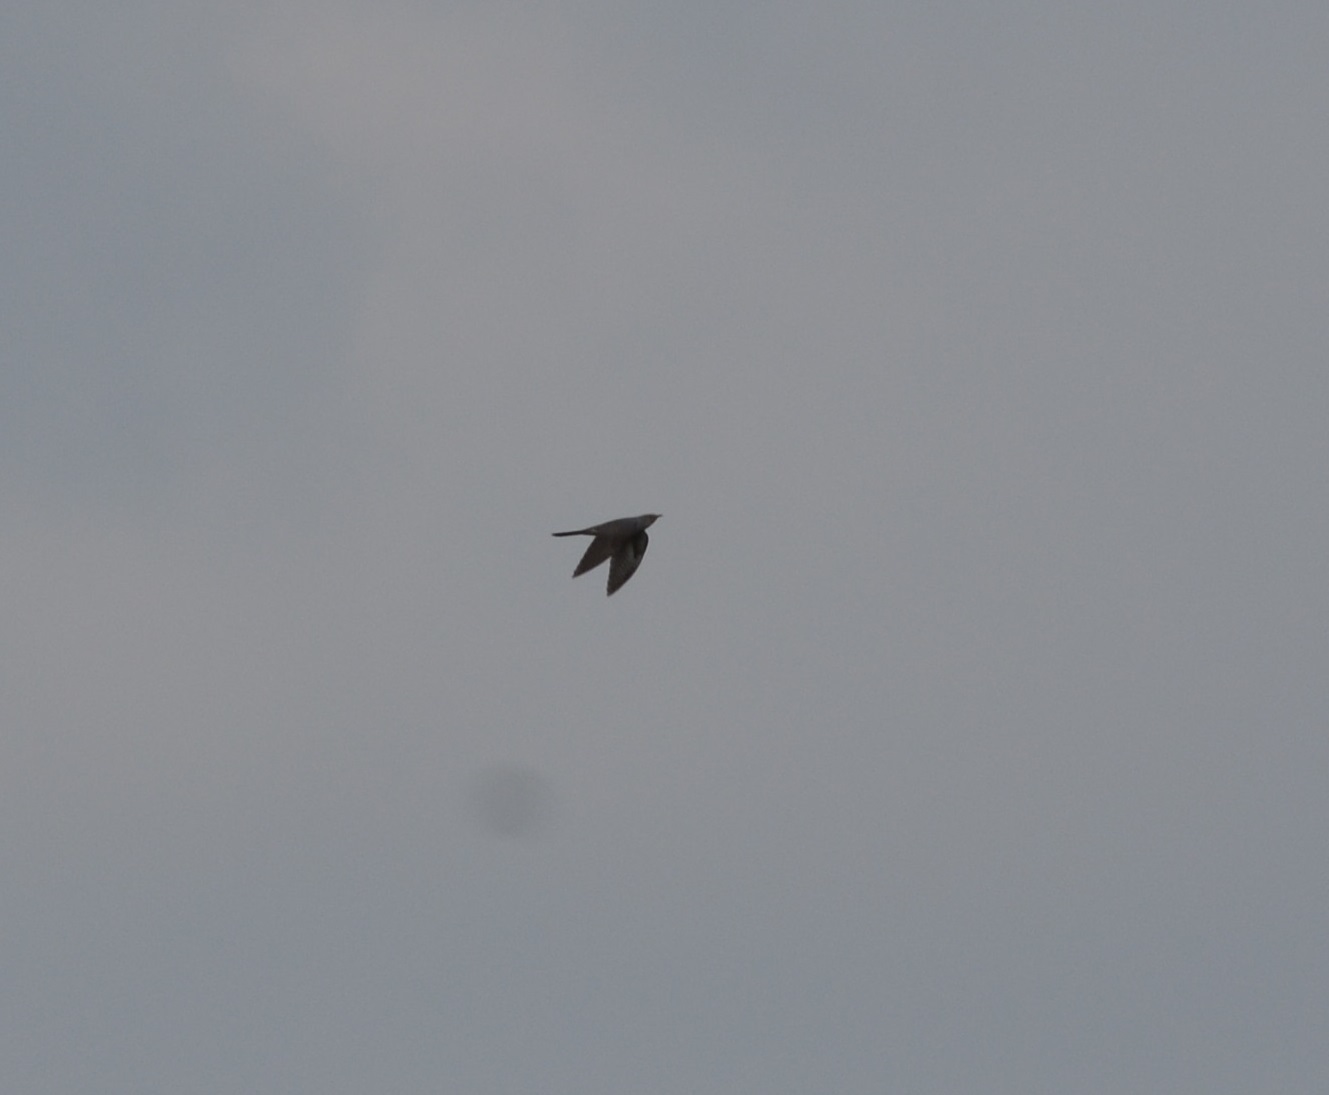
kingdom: Animalia
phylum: Chordata
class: Aves
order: Cuculiformes
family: Cuculidae
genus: Cuculus
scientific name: Cuculus canorus
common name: Common cuckoo
